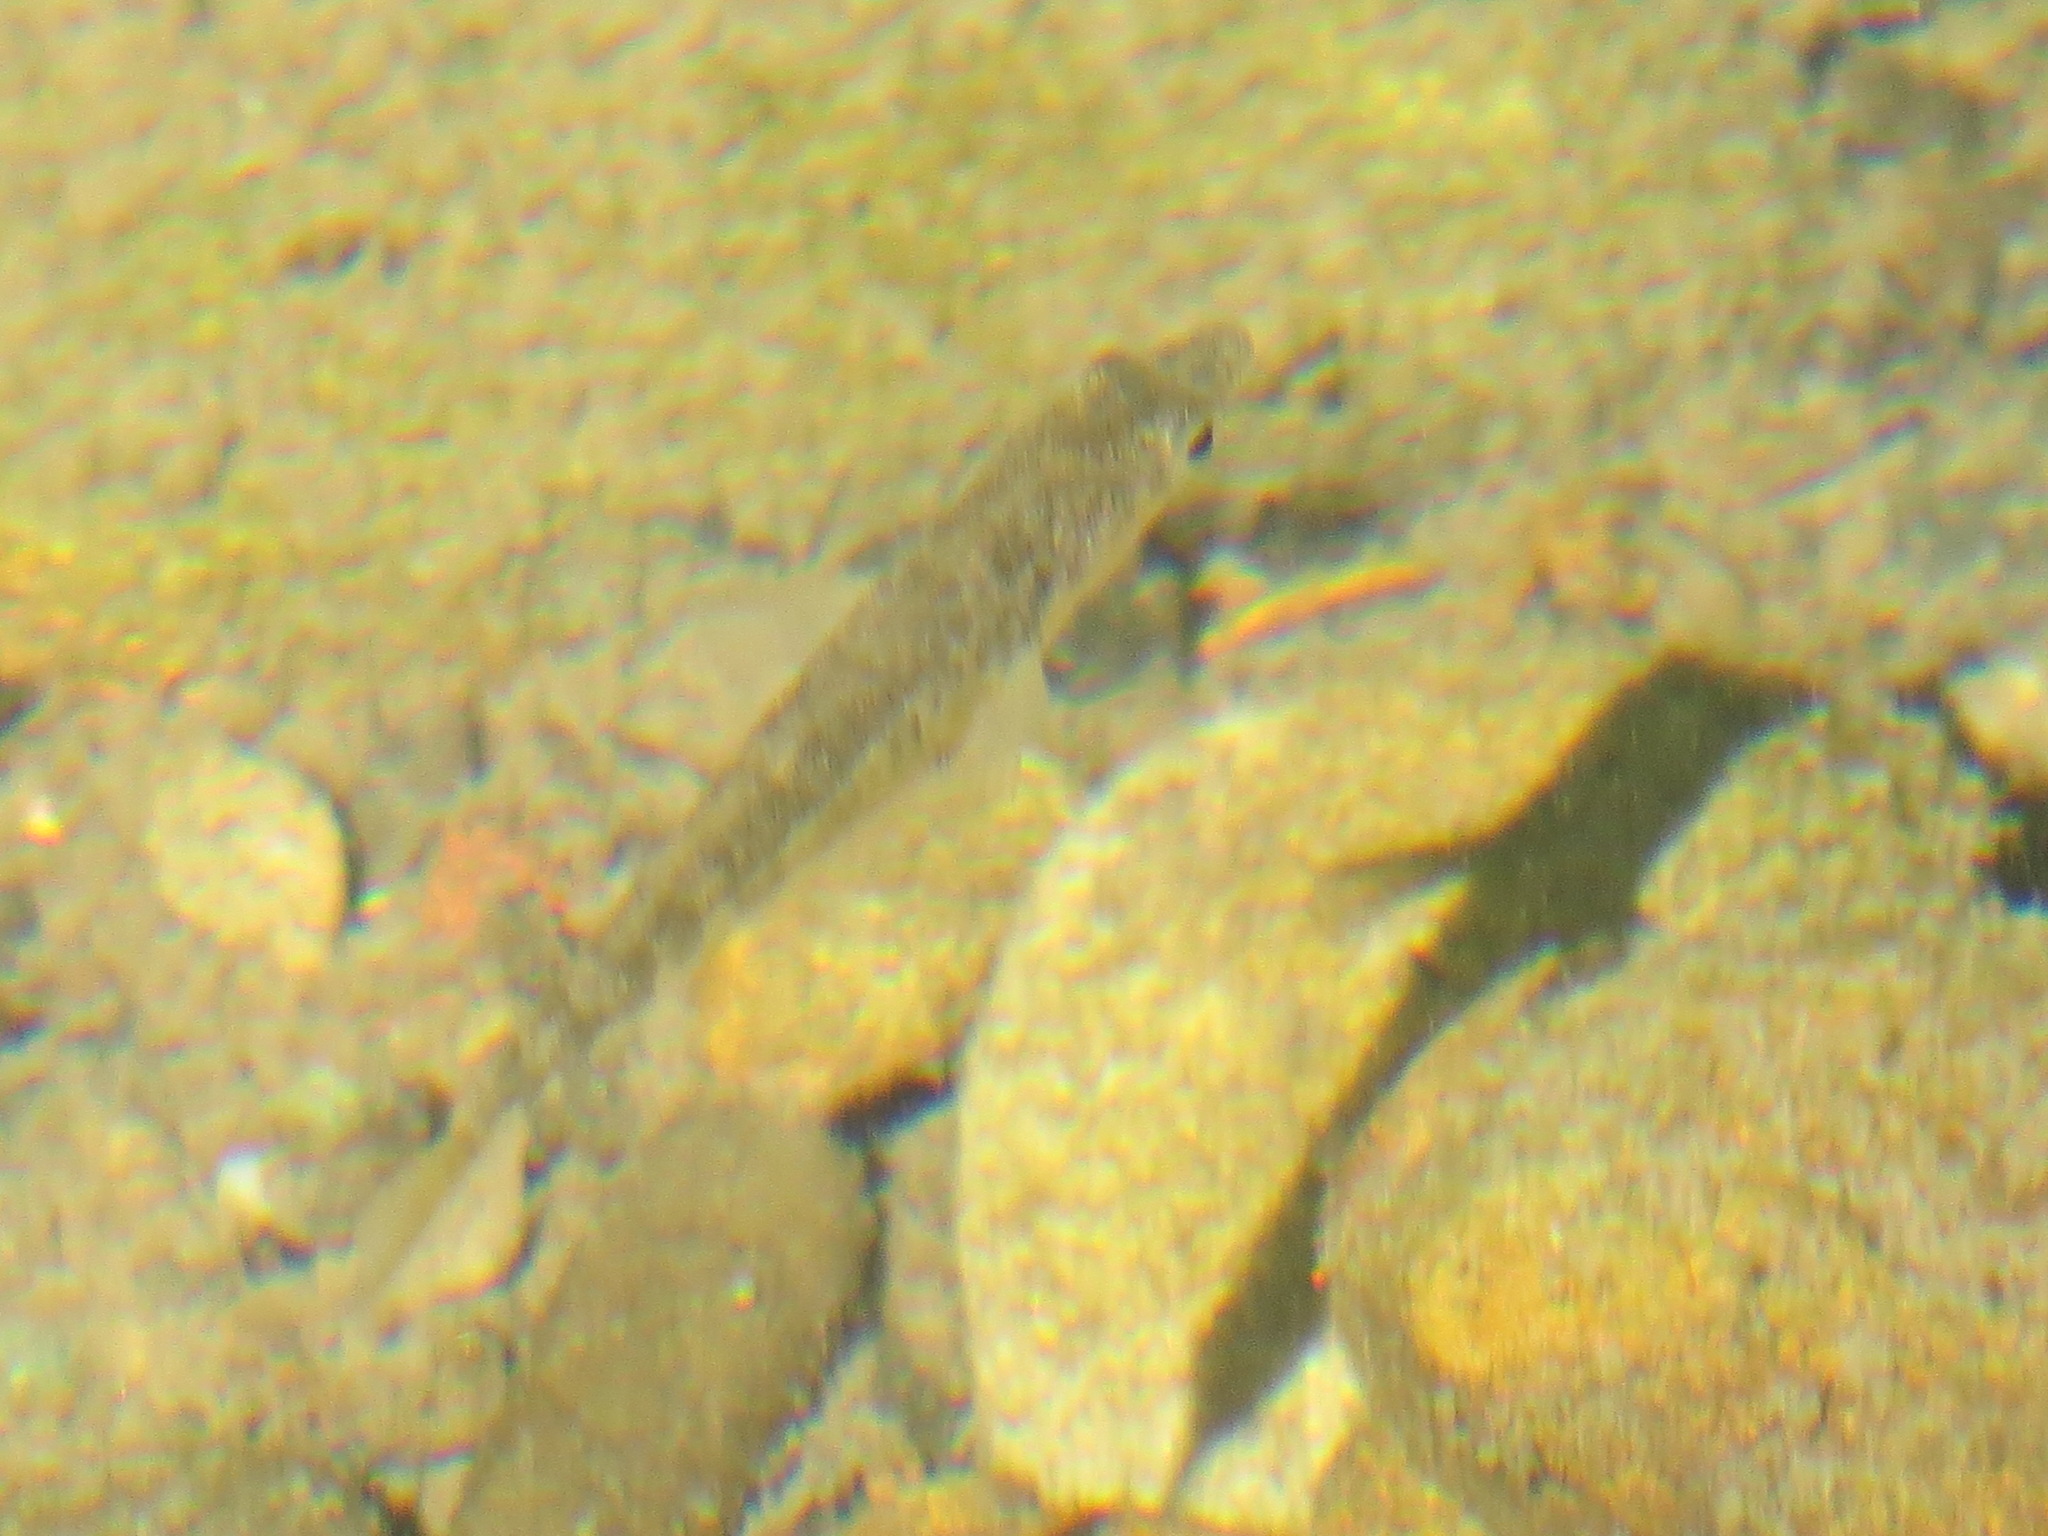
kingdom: Animalia
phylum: Chordata
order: Gasterosteiformes
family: Gasterosteidae
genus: Gasterosteus
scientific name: Gasterosteus aculeatus
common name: Three-spined stickleback
